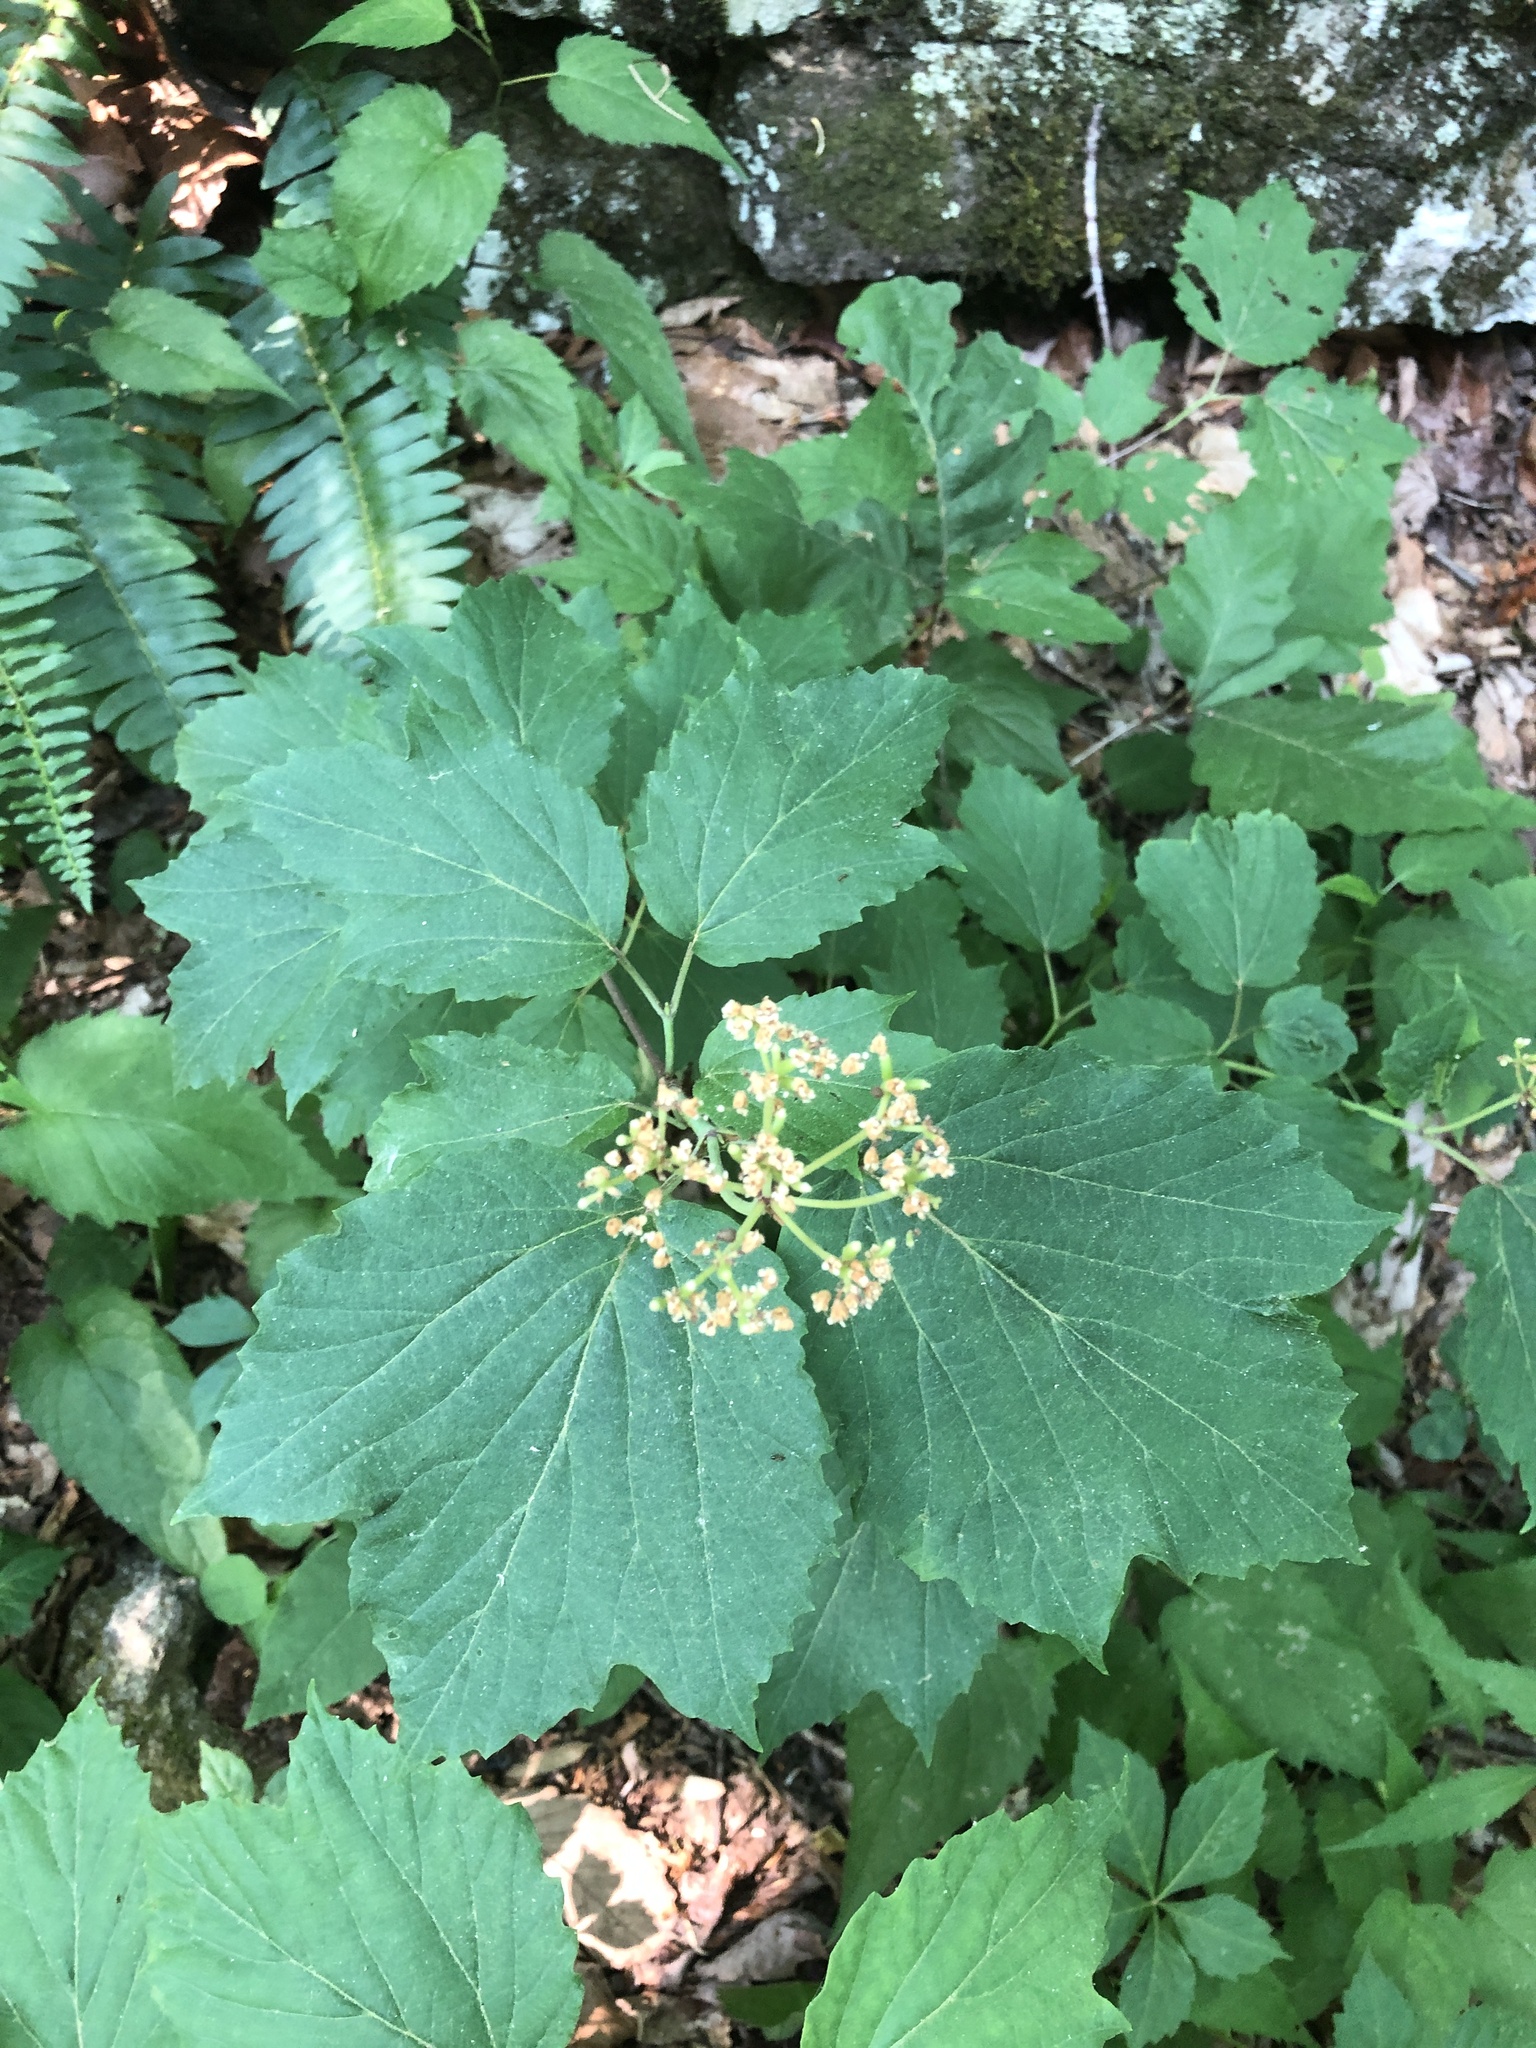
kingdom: Plantae
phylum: Tracheophyta
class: Magnoliopsida
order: Dipsacales
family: Viburnaceae
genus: Viburnum
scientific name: Viburnum acerifolium
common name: Dockmackie
